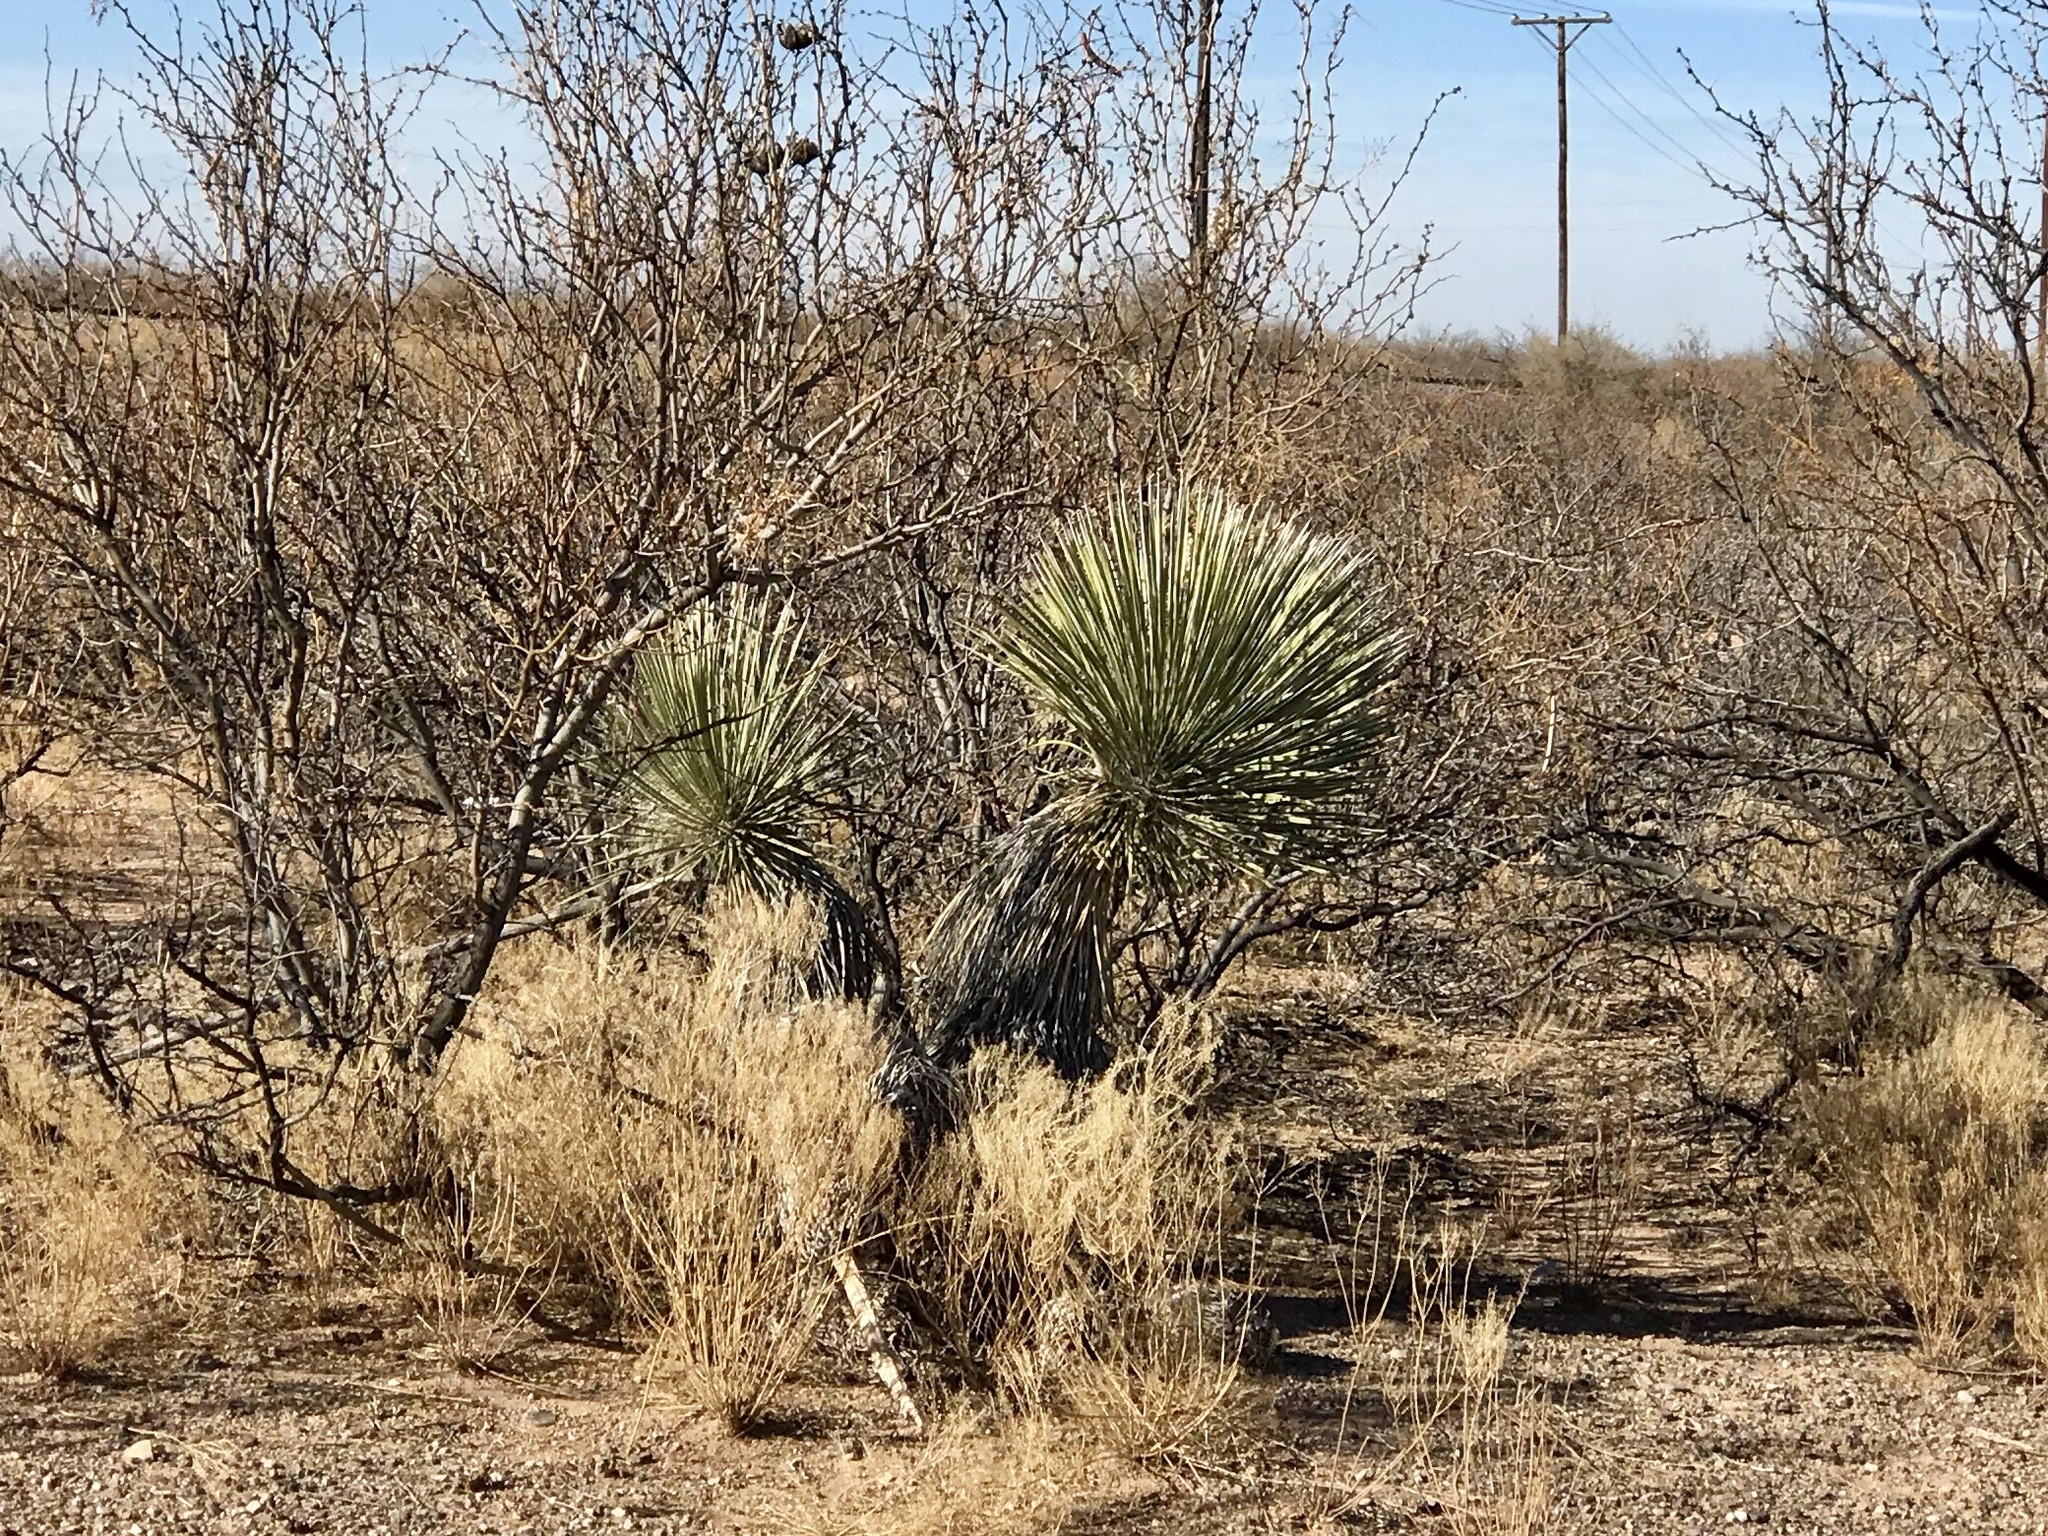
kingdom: Plantae
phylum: Tracheophyta
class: Liliopsida
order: Asparagales
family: Asparagaceae
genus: Yucca
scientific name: Yucca elata
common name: Palmella
